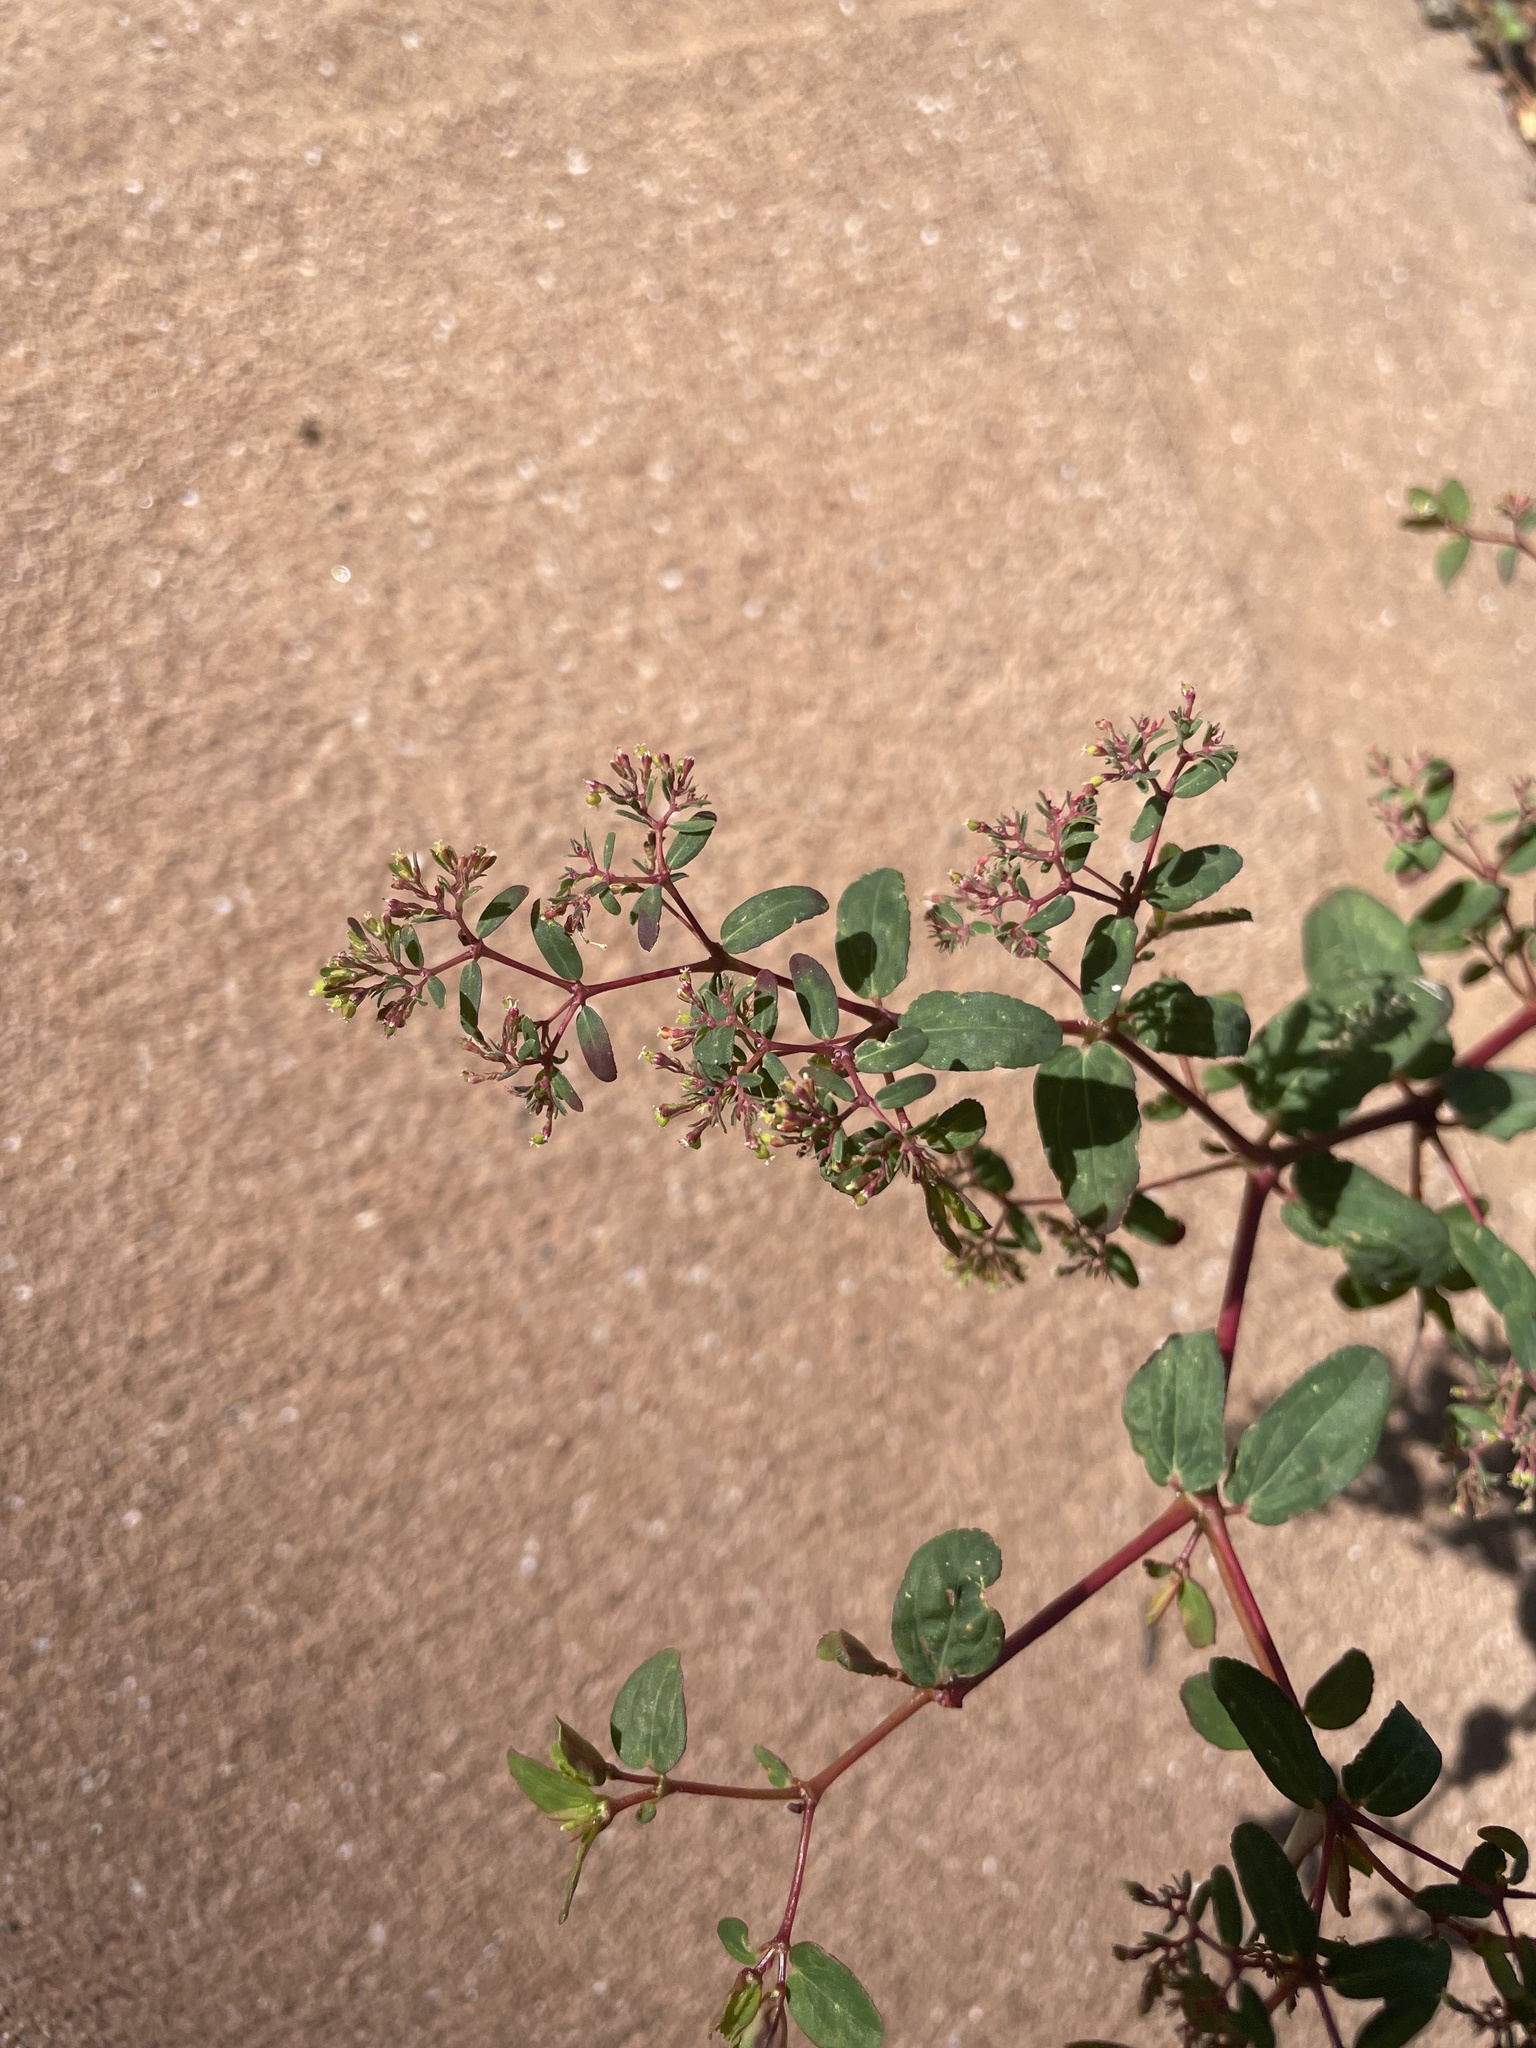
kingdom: Plantae
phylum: Tracheophyta
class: Magnoliopsida
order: Malpighiales
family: Euphorbiaceae
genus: Euphorbia
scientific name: Euphorbia hyssopifolia
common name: Hyssopleaf sandmat
